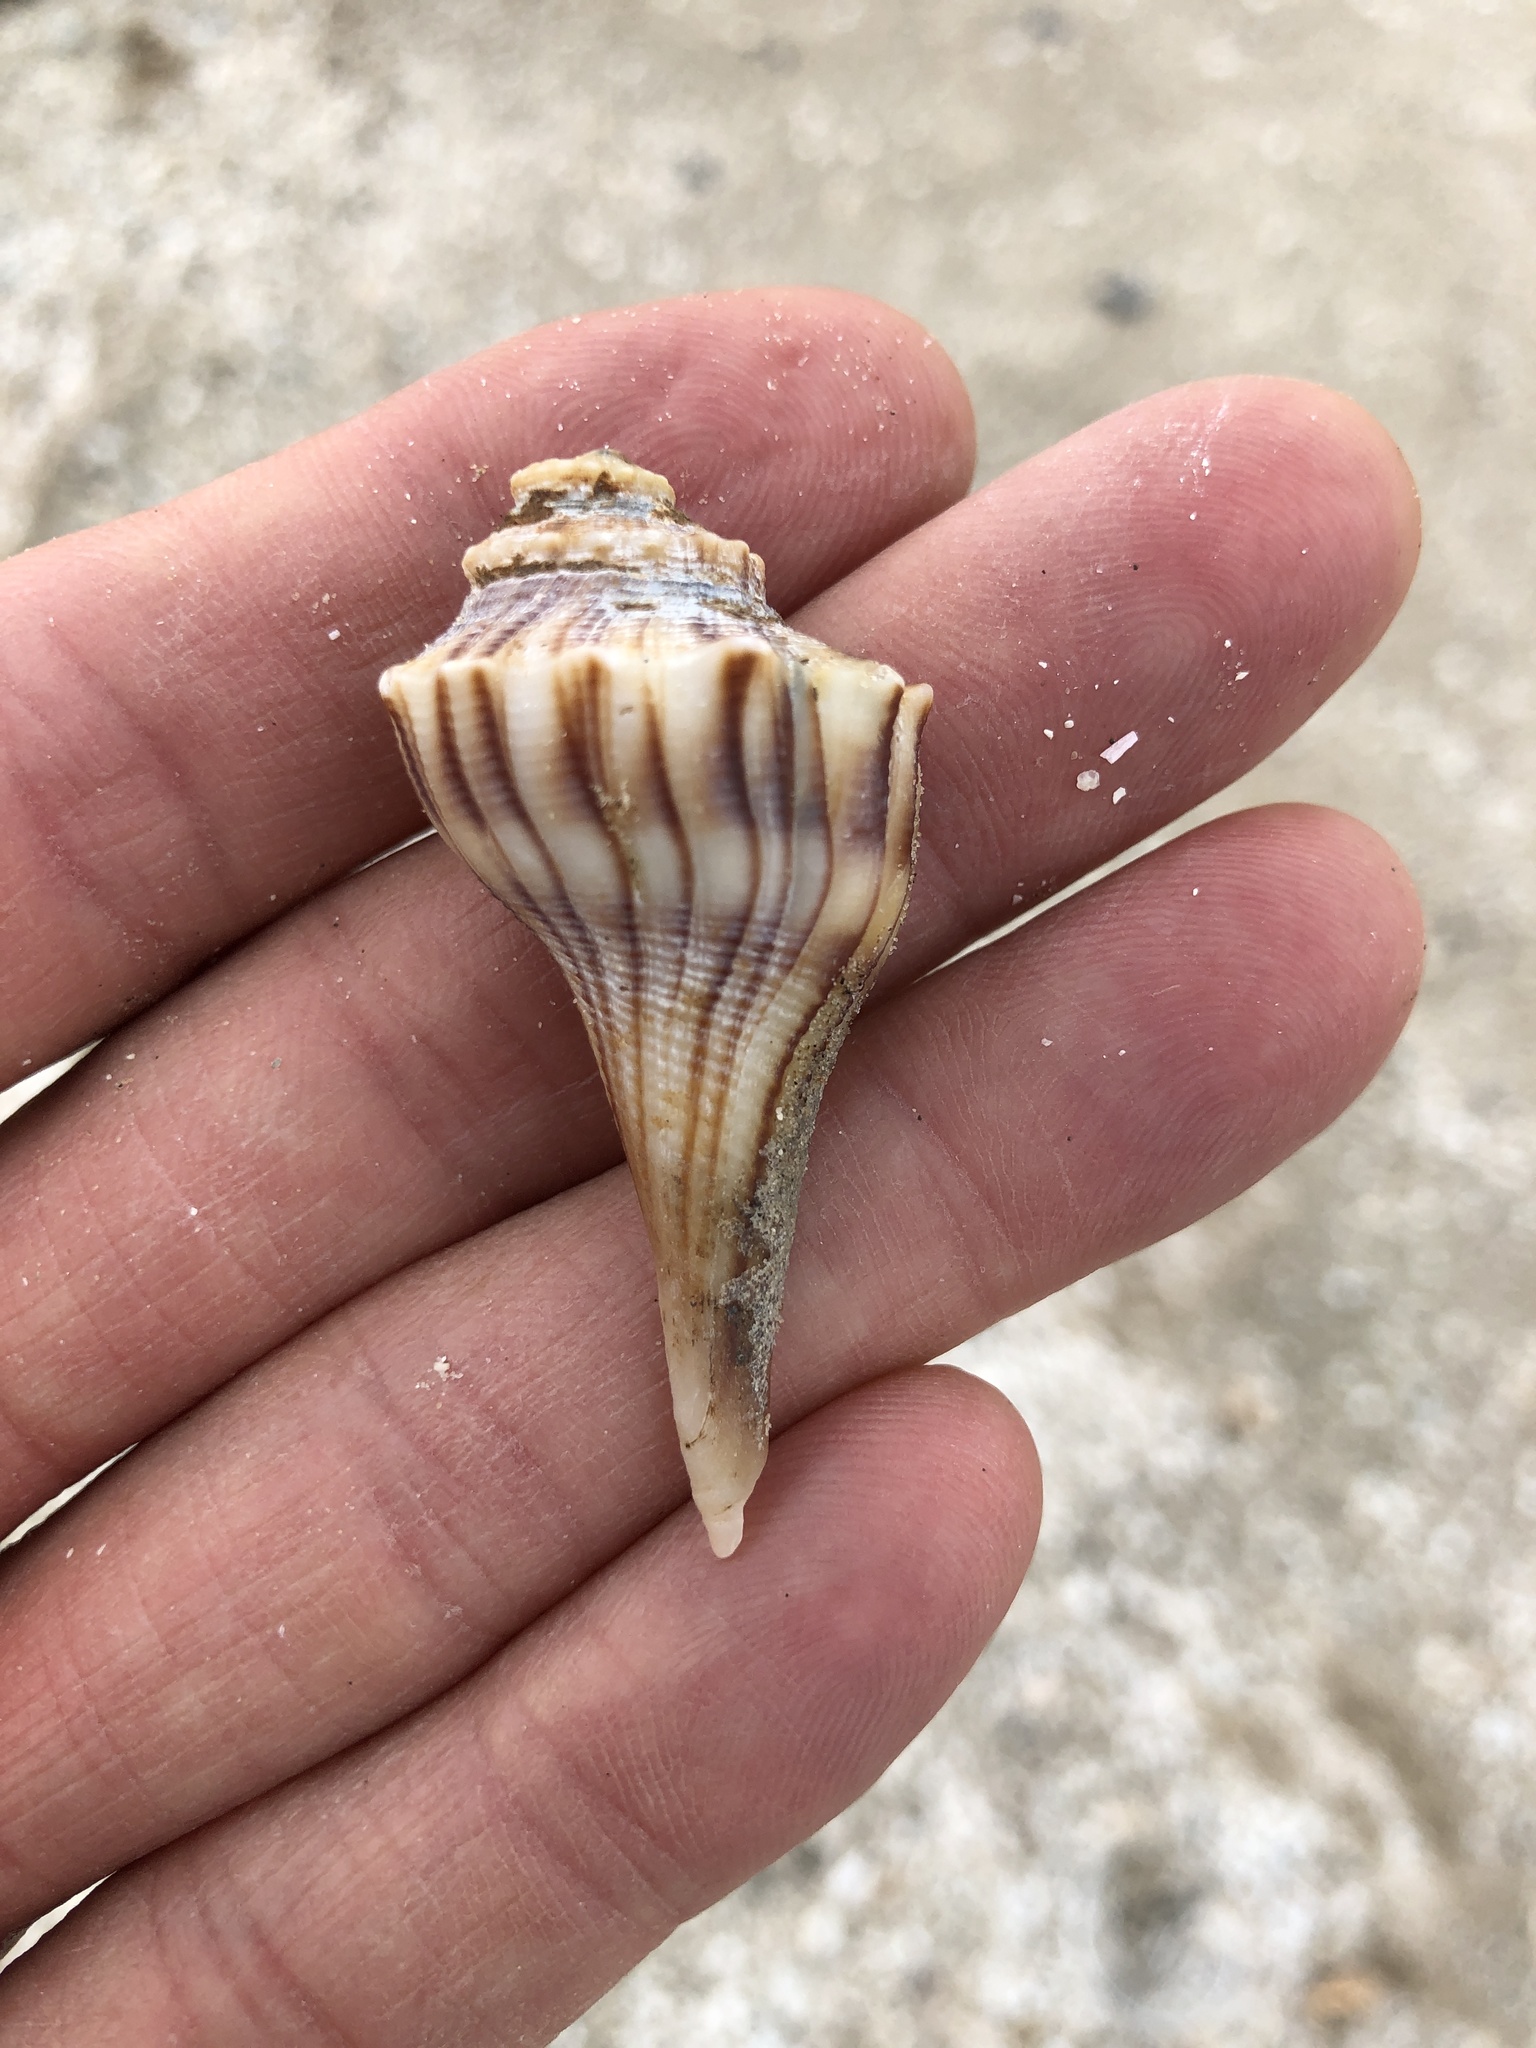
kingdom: Animalia
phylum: Mollusca
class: Gastropoda
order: Neogastropoda
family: Busyconidae
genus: Sinistrofulgur
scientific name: Sinistrofulgur pulleyi
